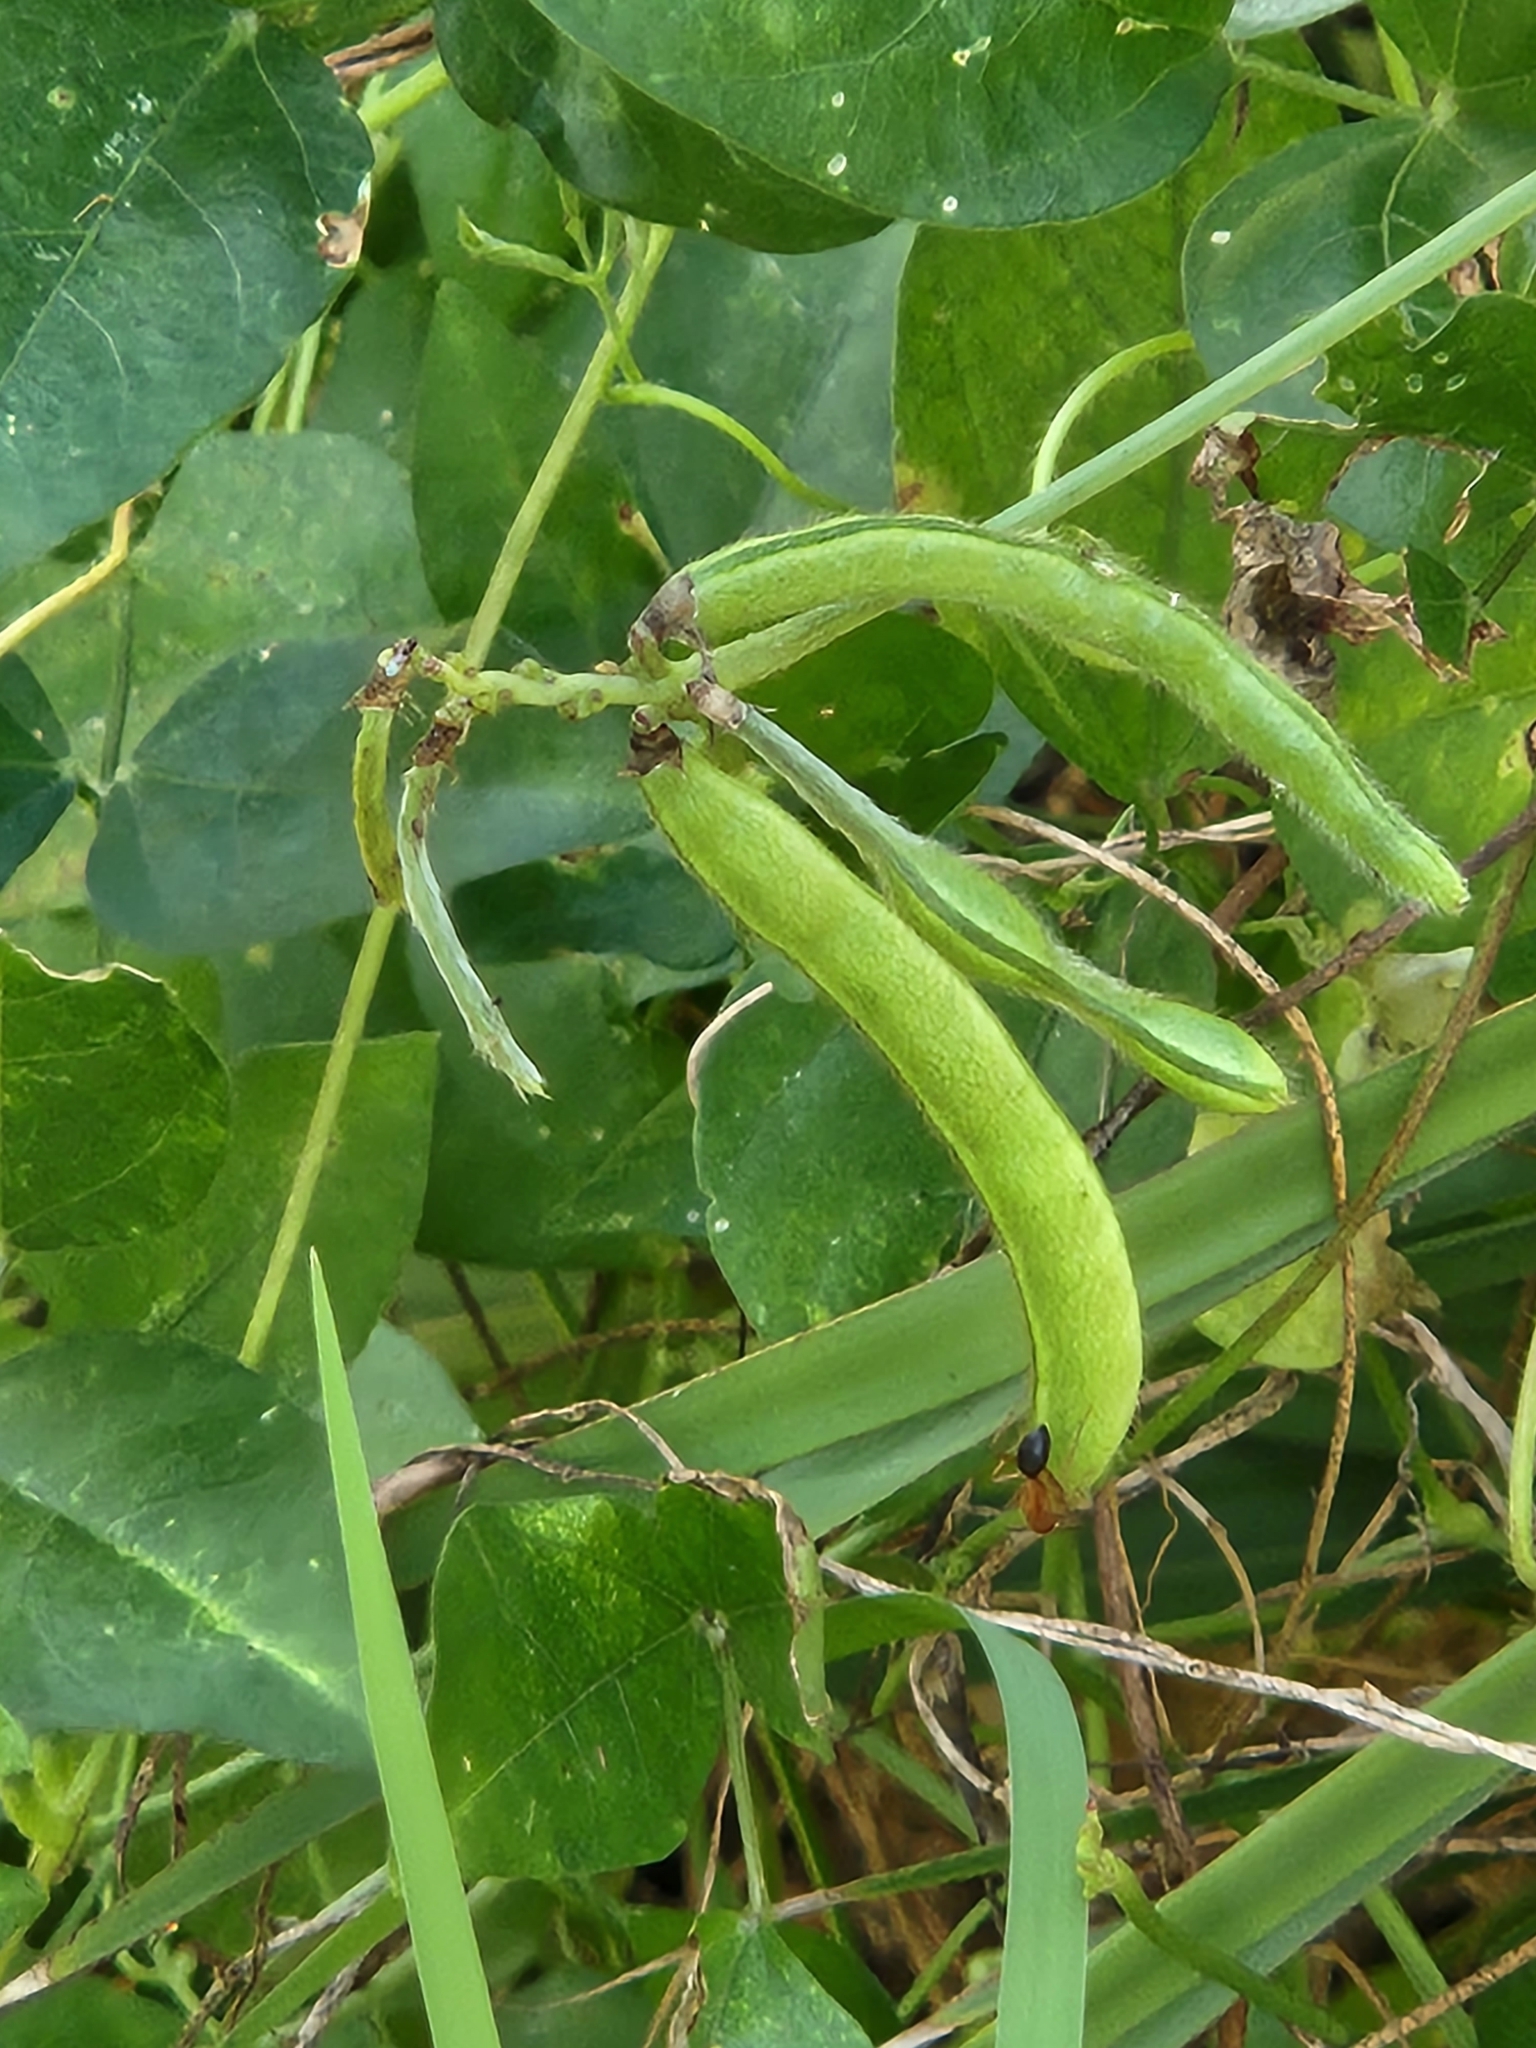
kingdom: Plantae
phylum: Tracheophyta
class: Magnoliopsida
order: Fabales
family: Fabaceae
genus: Vigna
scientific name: Vigna luteola
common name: Hairypod cowpea
